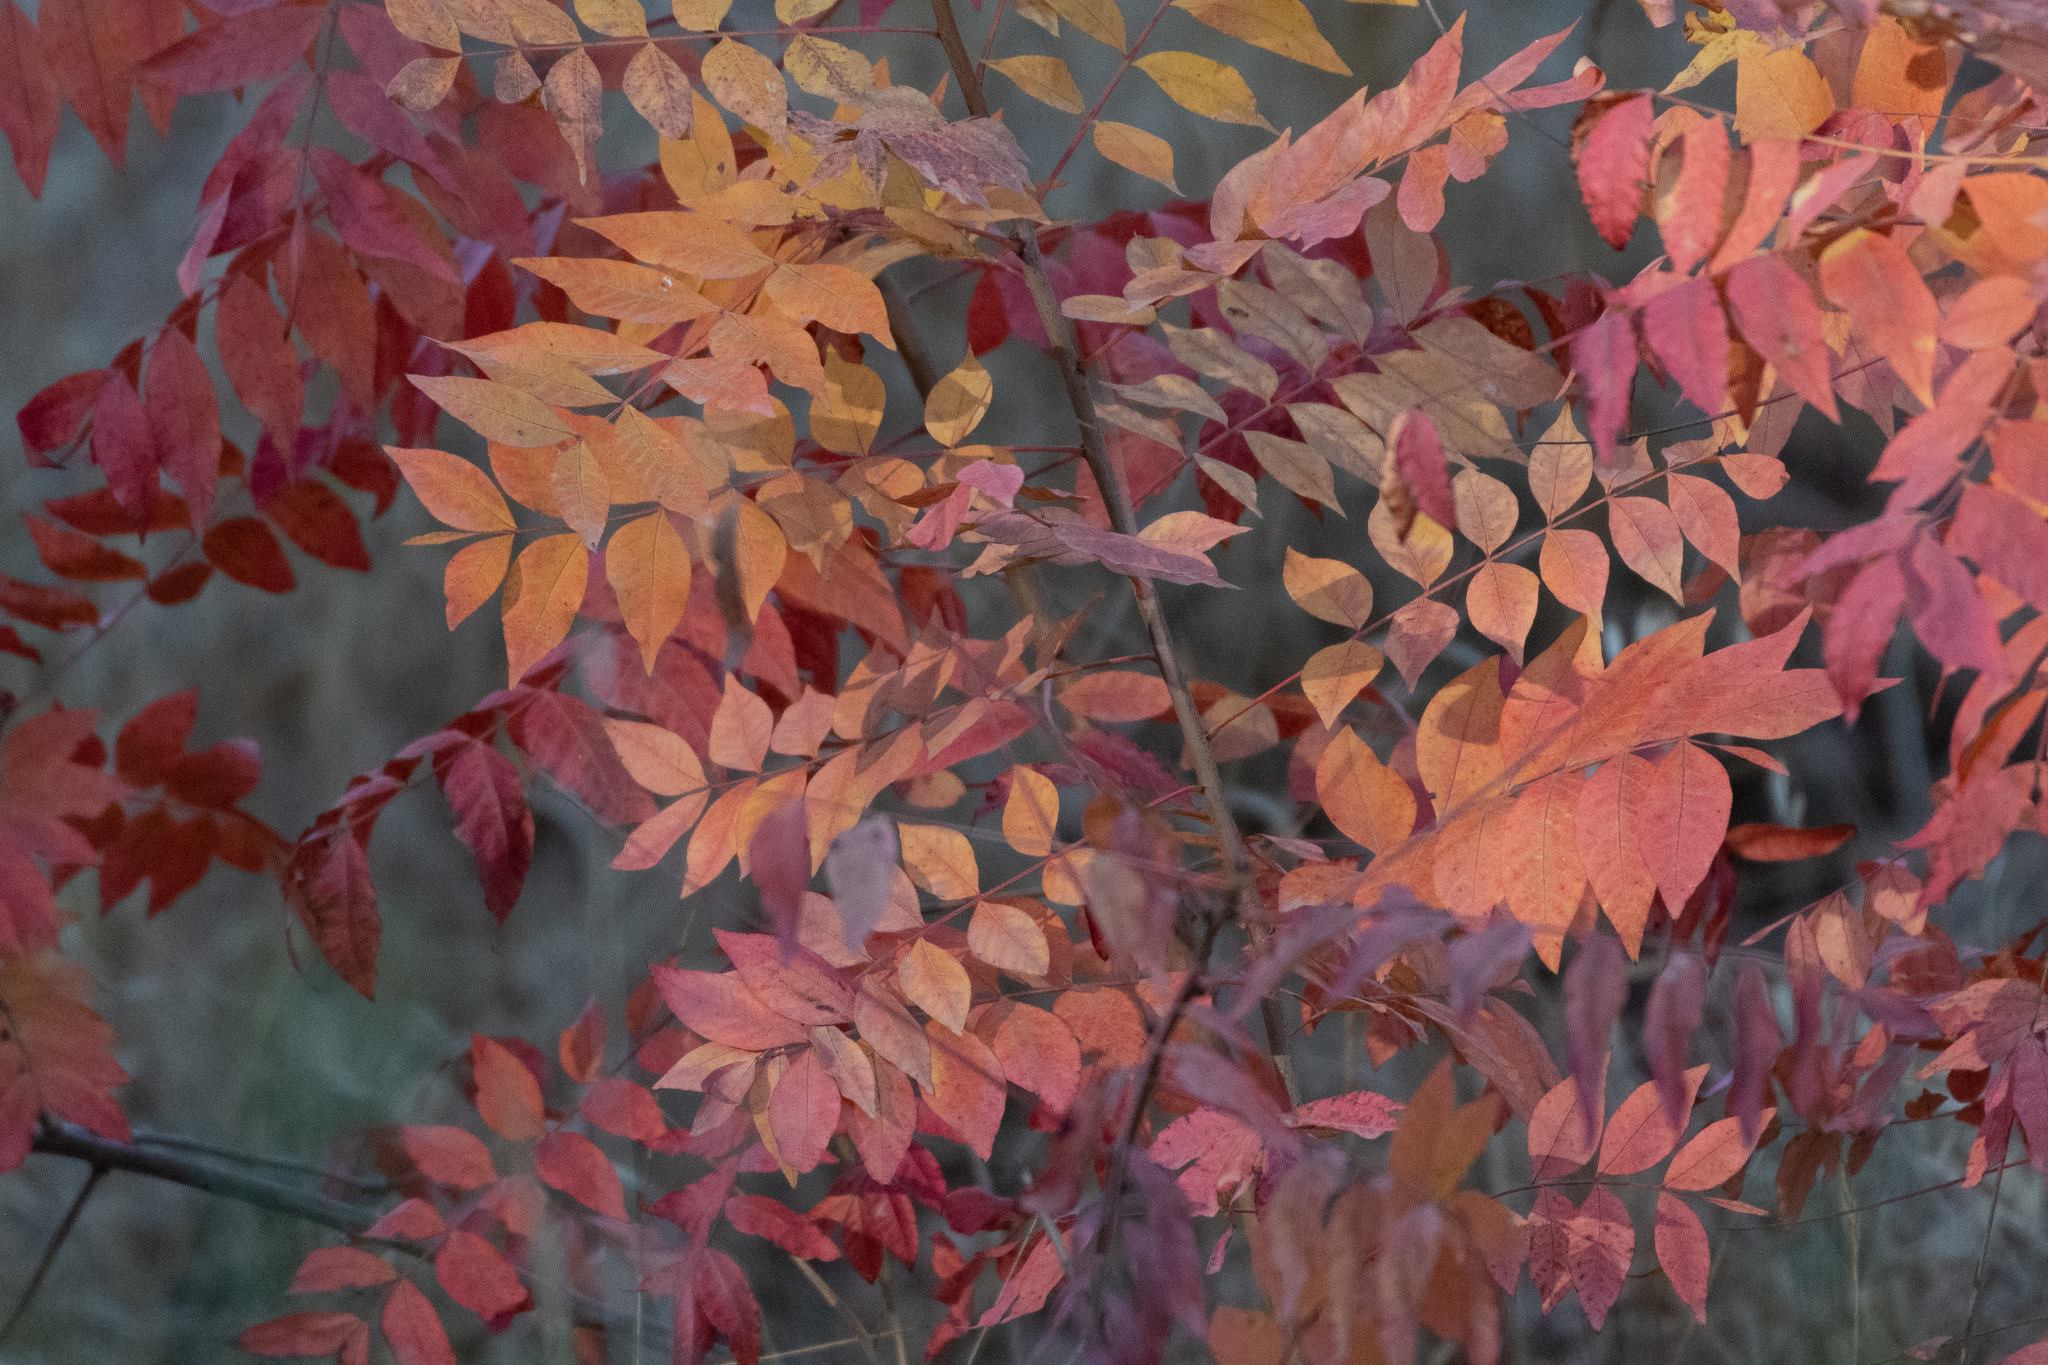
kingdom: Plantae
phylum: Tracheophyta
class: Magnoliopsida
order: Sapindales
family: Anacardiaceae
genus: Pistacia
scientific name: Pistacia chinensis
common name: Chinese pistache
